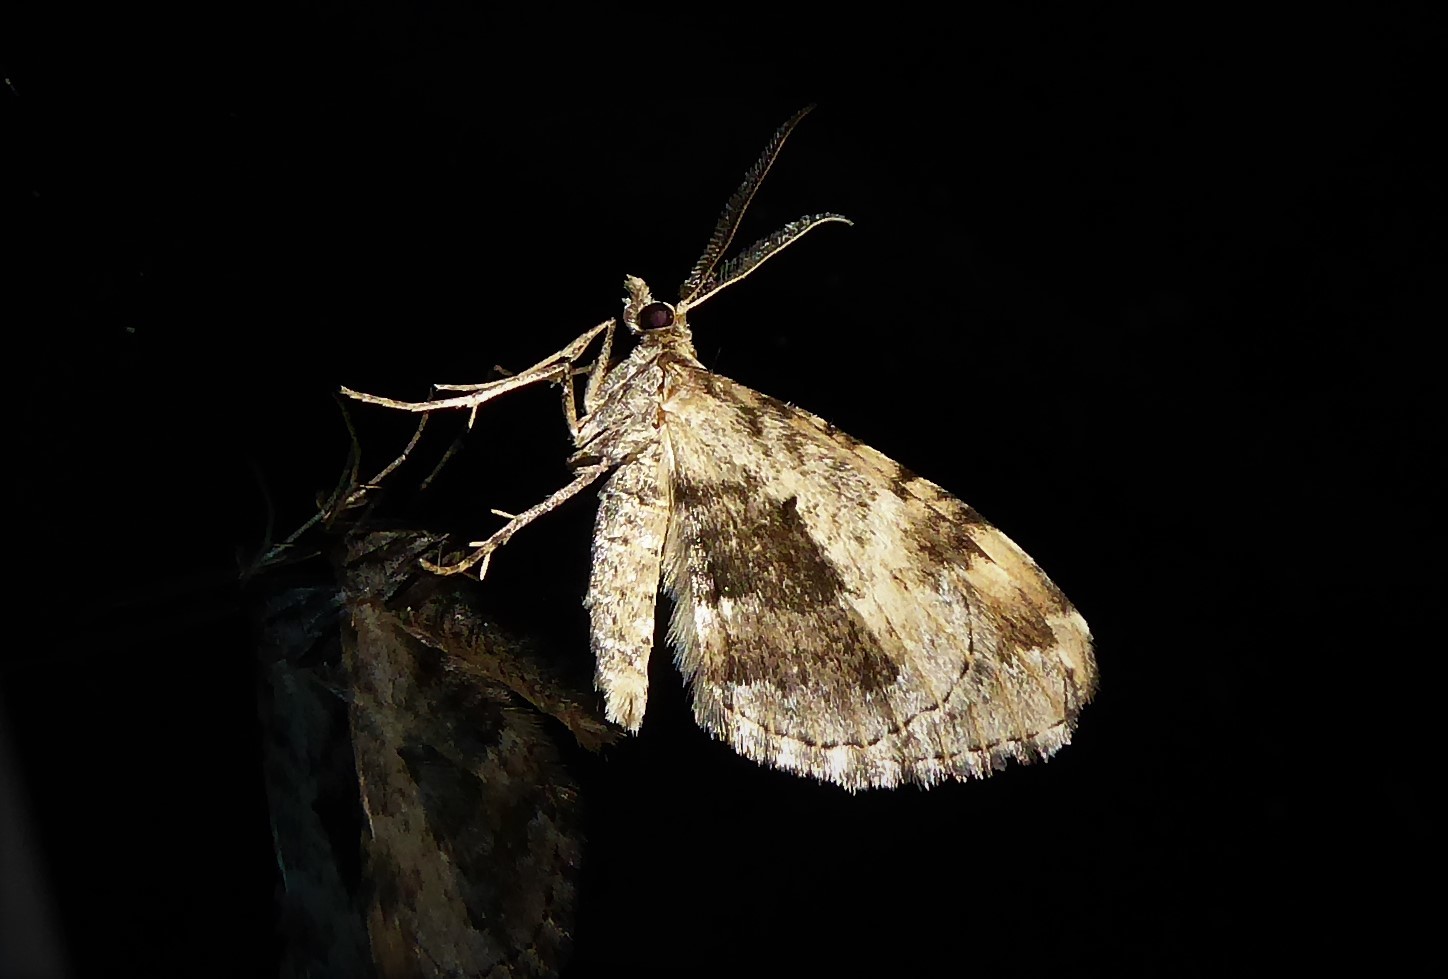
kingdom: Animalia
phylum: Arthropoda
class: Insecta
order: Lepidoptera
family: Geometridae
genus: Asaphodes
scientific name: Asaphodes aegrota
